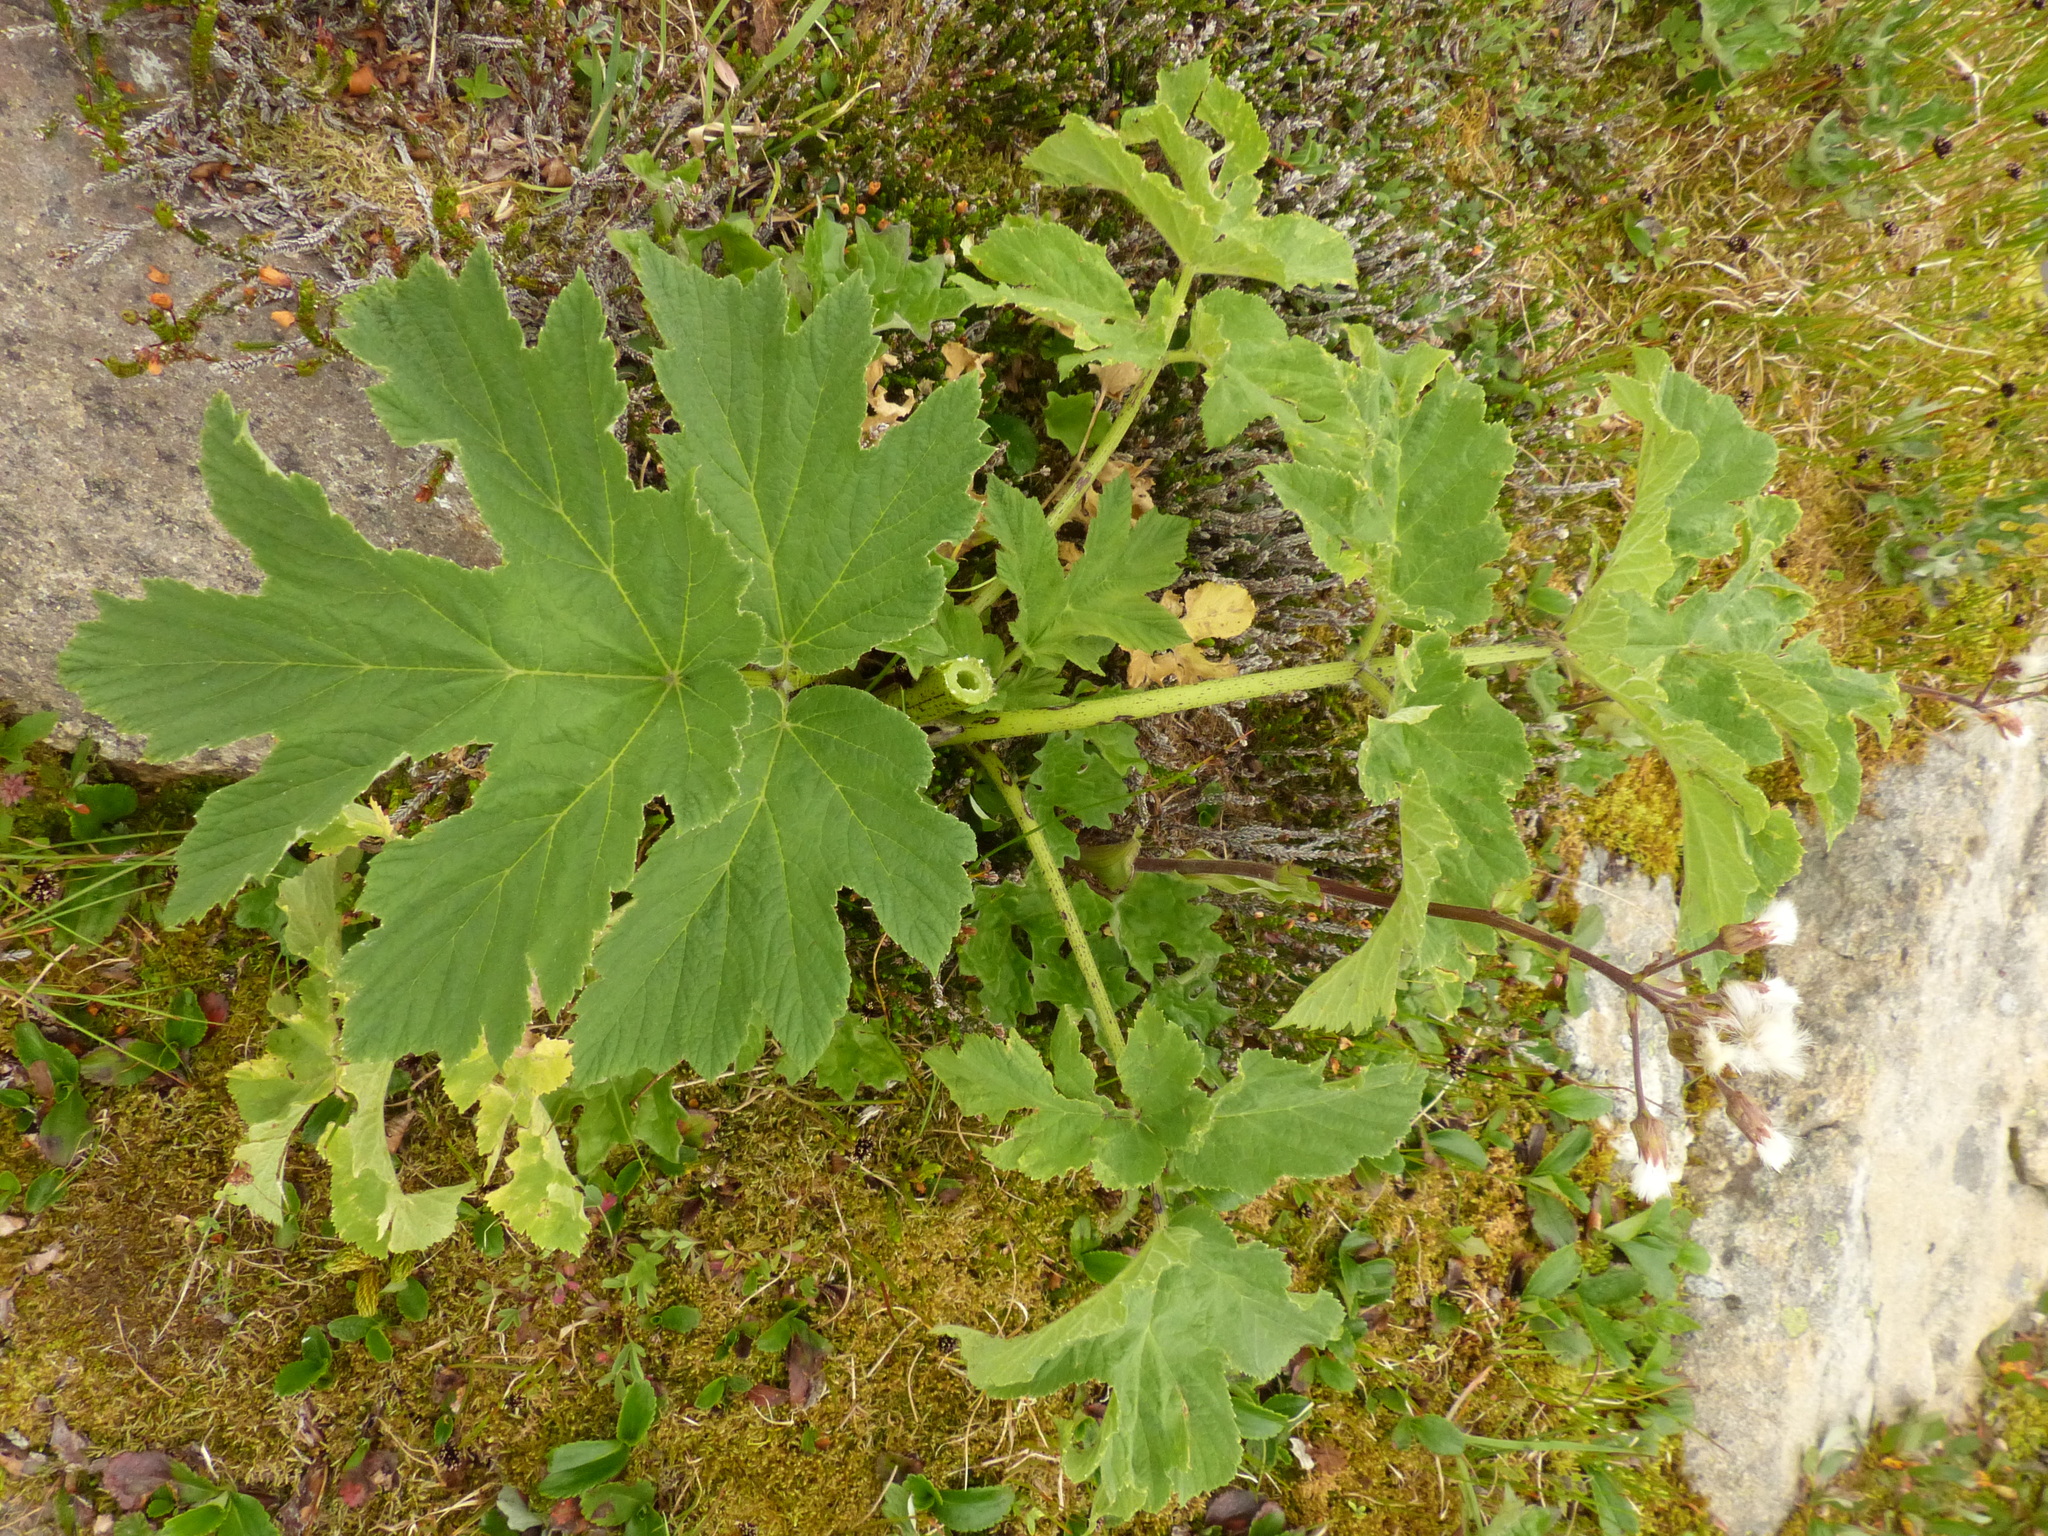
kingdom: Plantae
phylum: Tracheophyta
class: Magnoliopsida
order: Apiales
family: Apiaceae
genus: Heracleum
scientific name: Heracleum maximum
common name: American cow parsnip
